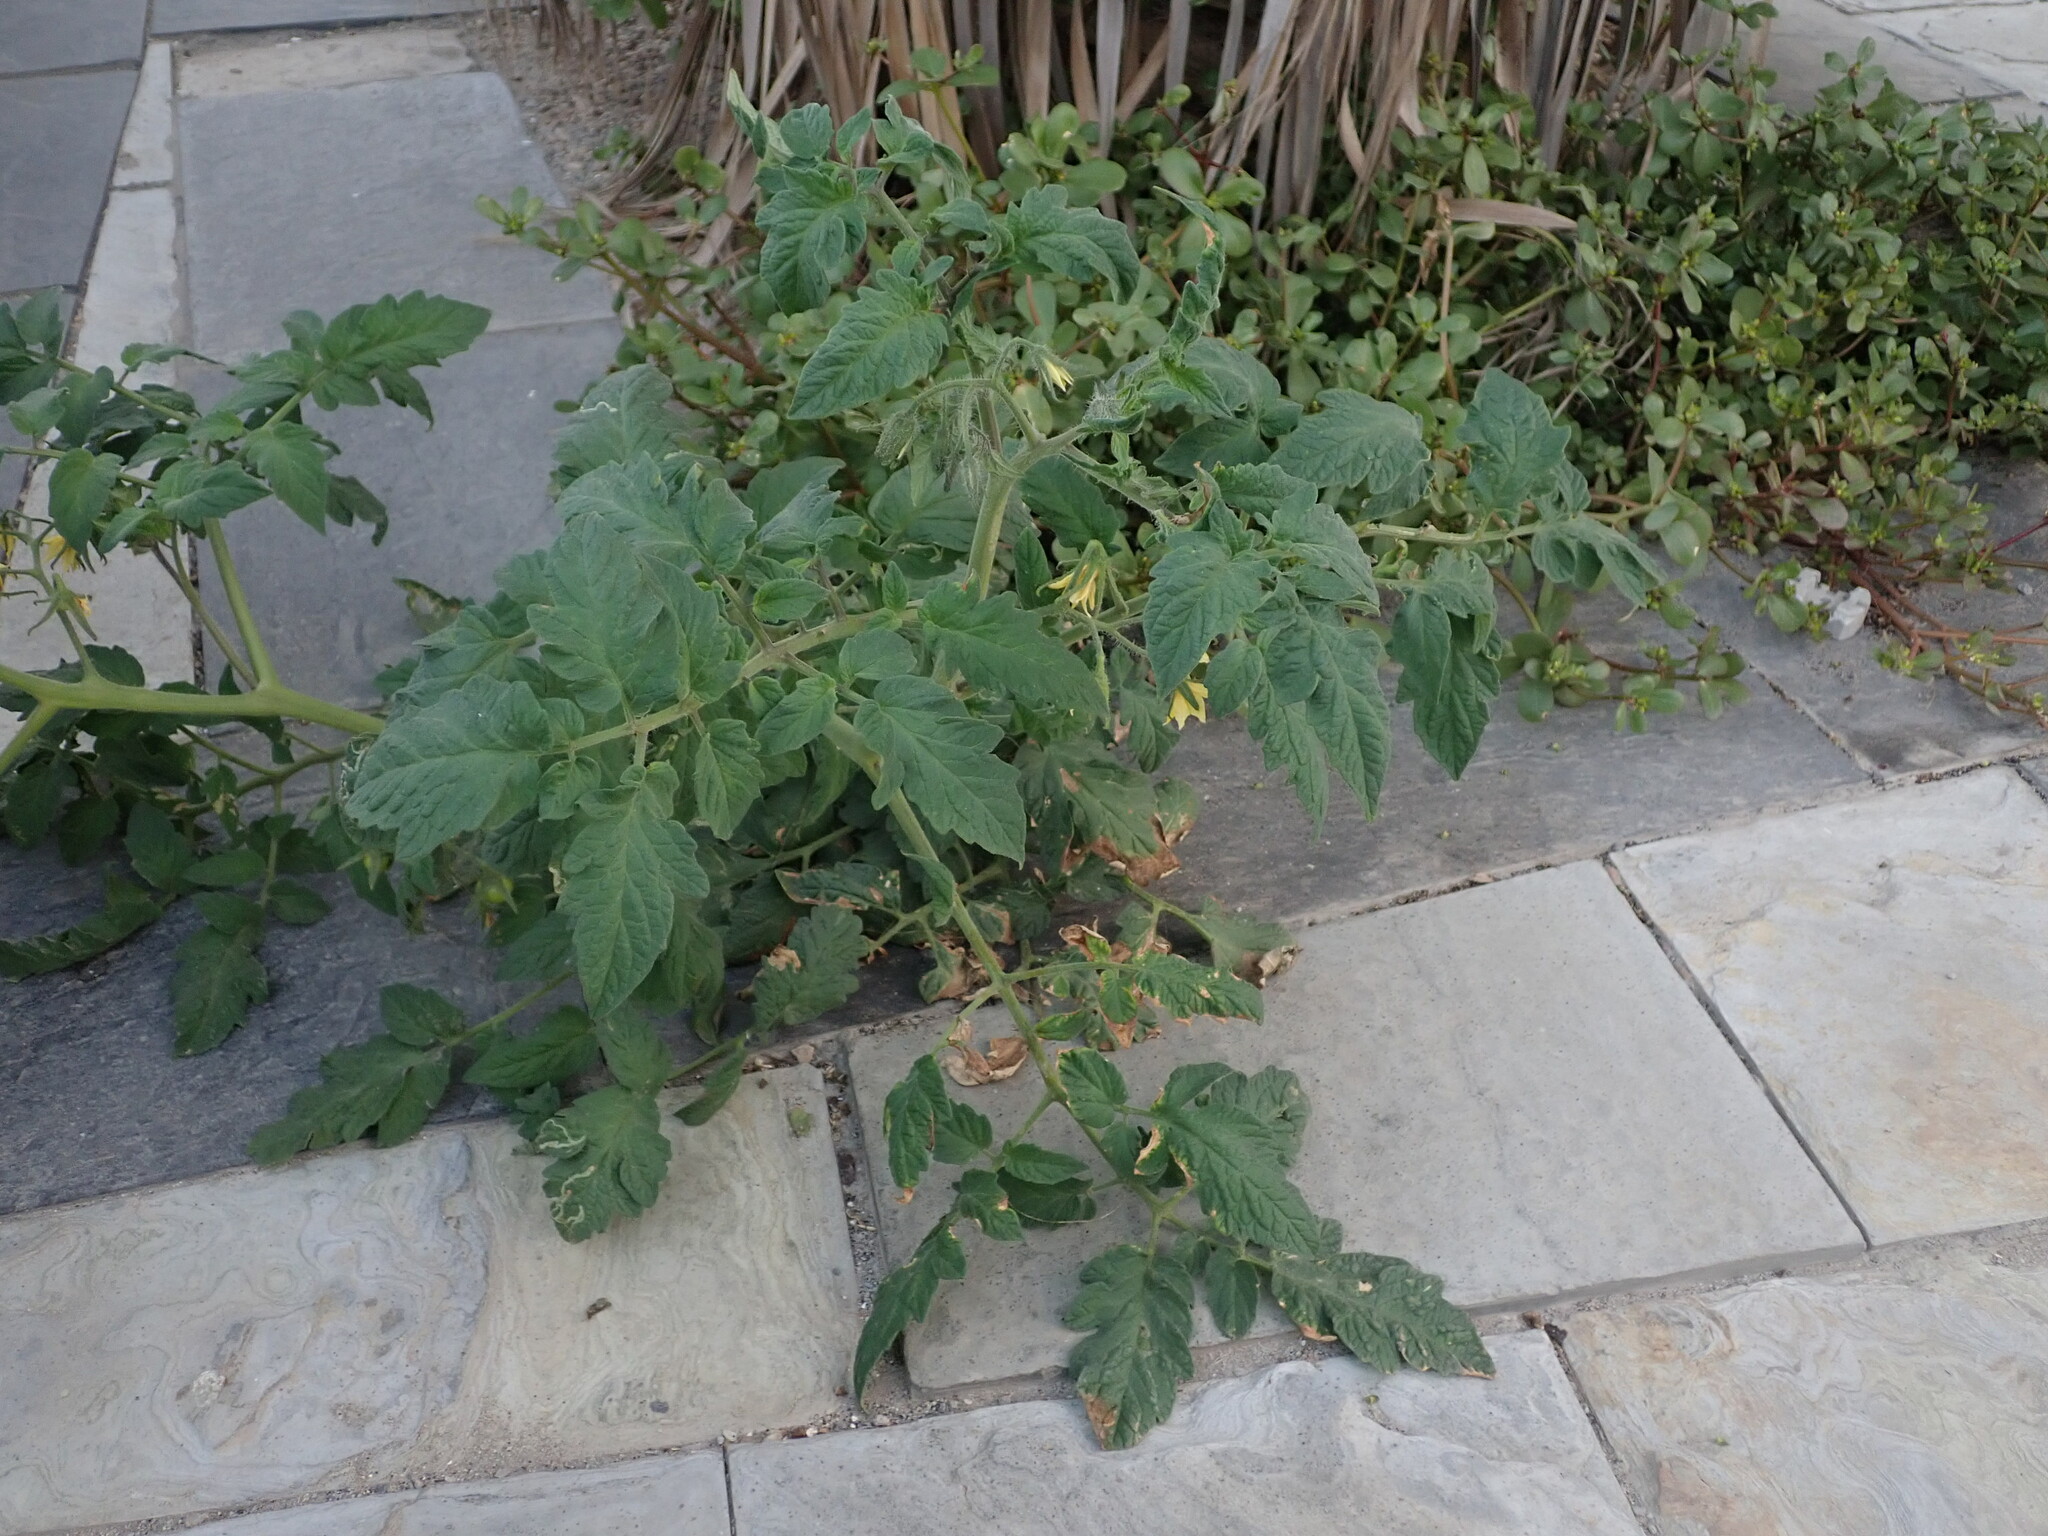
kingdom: Plantae
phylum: Tracheophyta
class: Magnoliopsida
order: Solanales
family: Solanaceae
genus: Solanum
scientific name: Solanum lycopersicum
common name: Garden tomato
